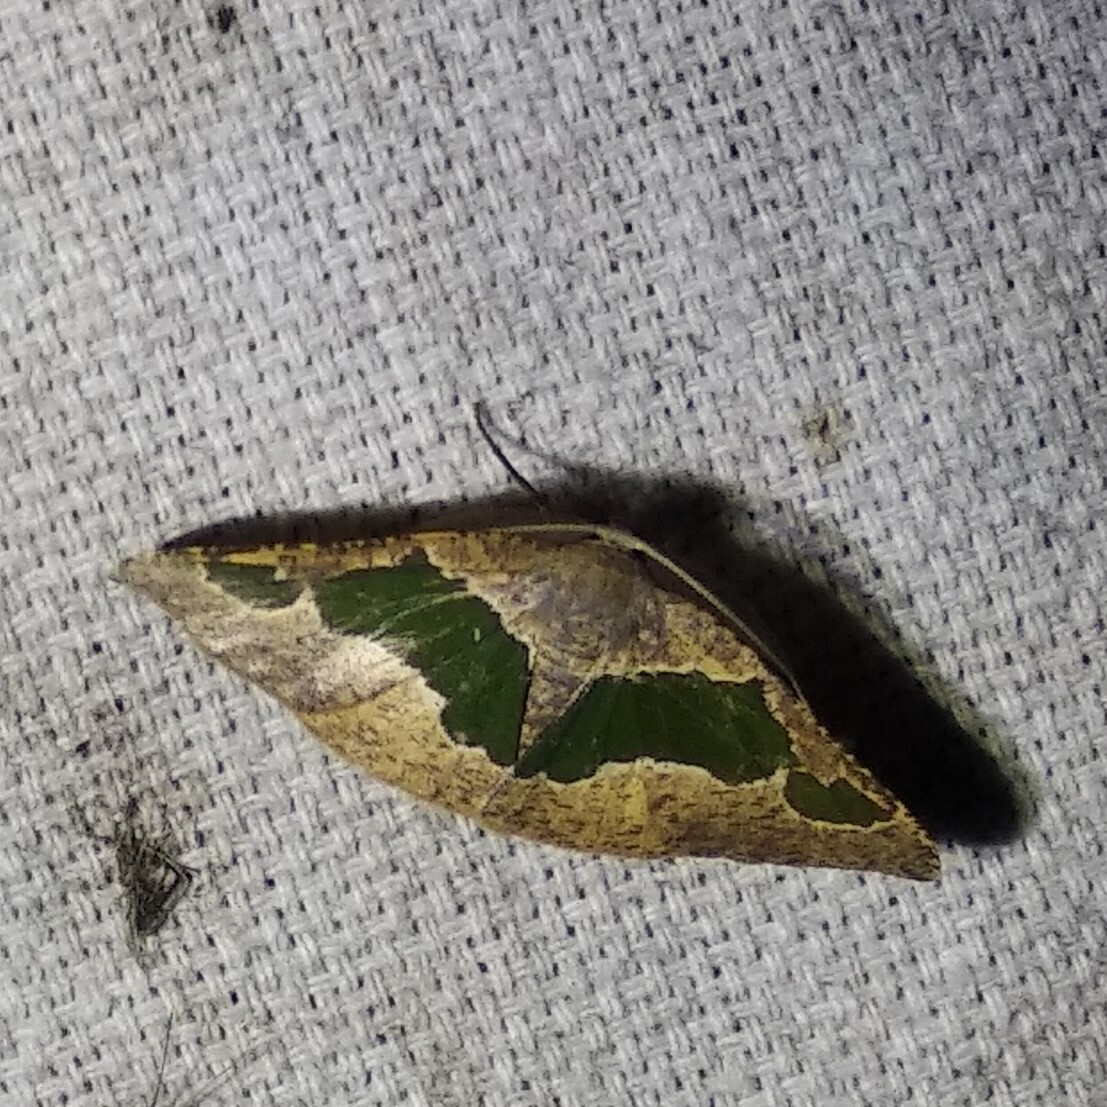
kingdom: Animalia
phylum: Arthropoda
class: Insecta
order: Lepidoptera
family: Geometridae
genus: Celenna
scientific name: Celenna festivaria
